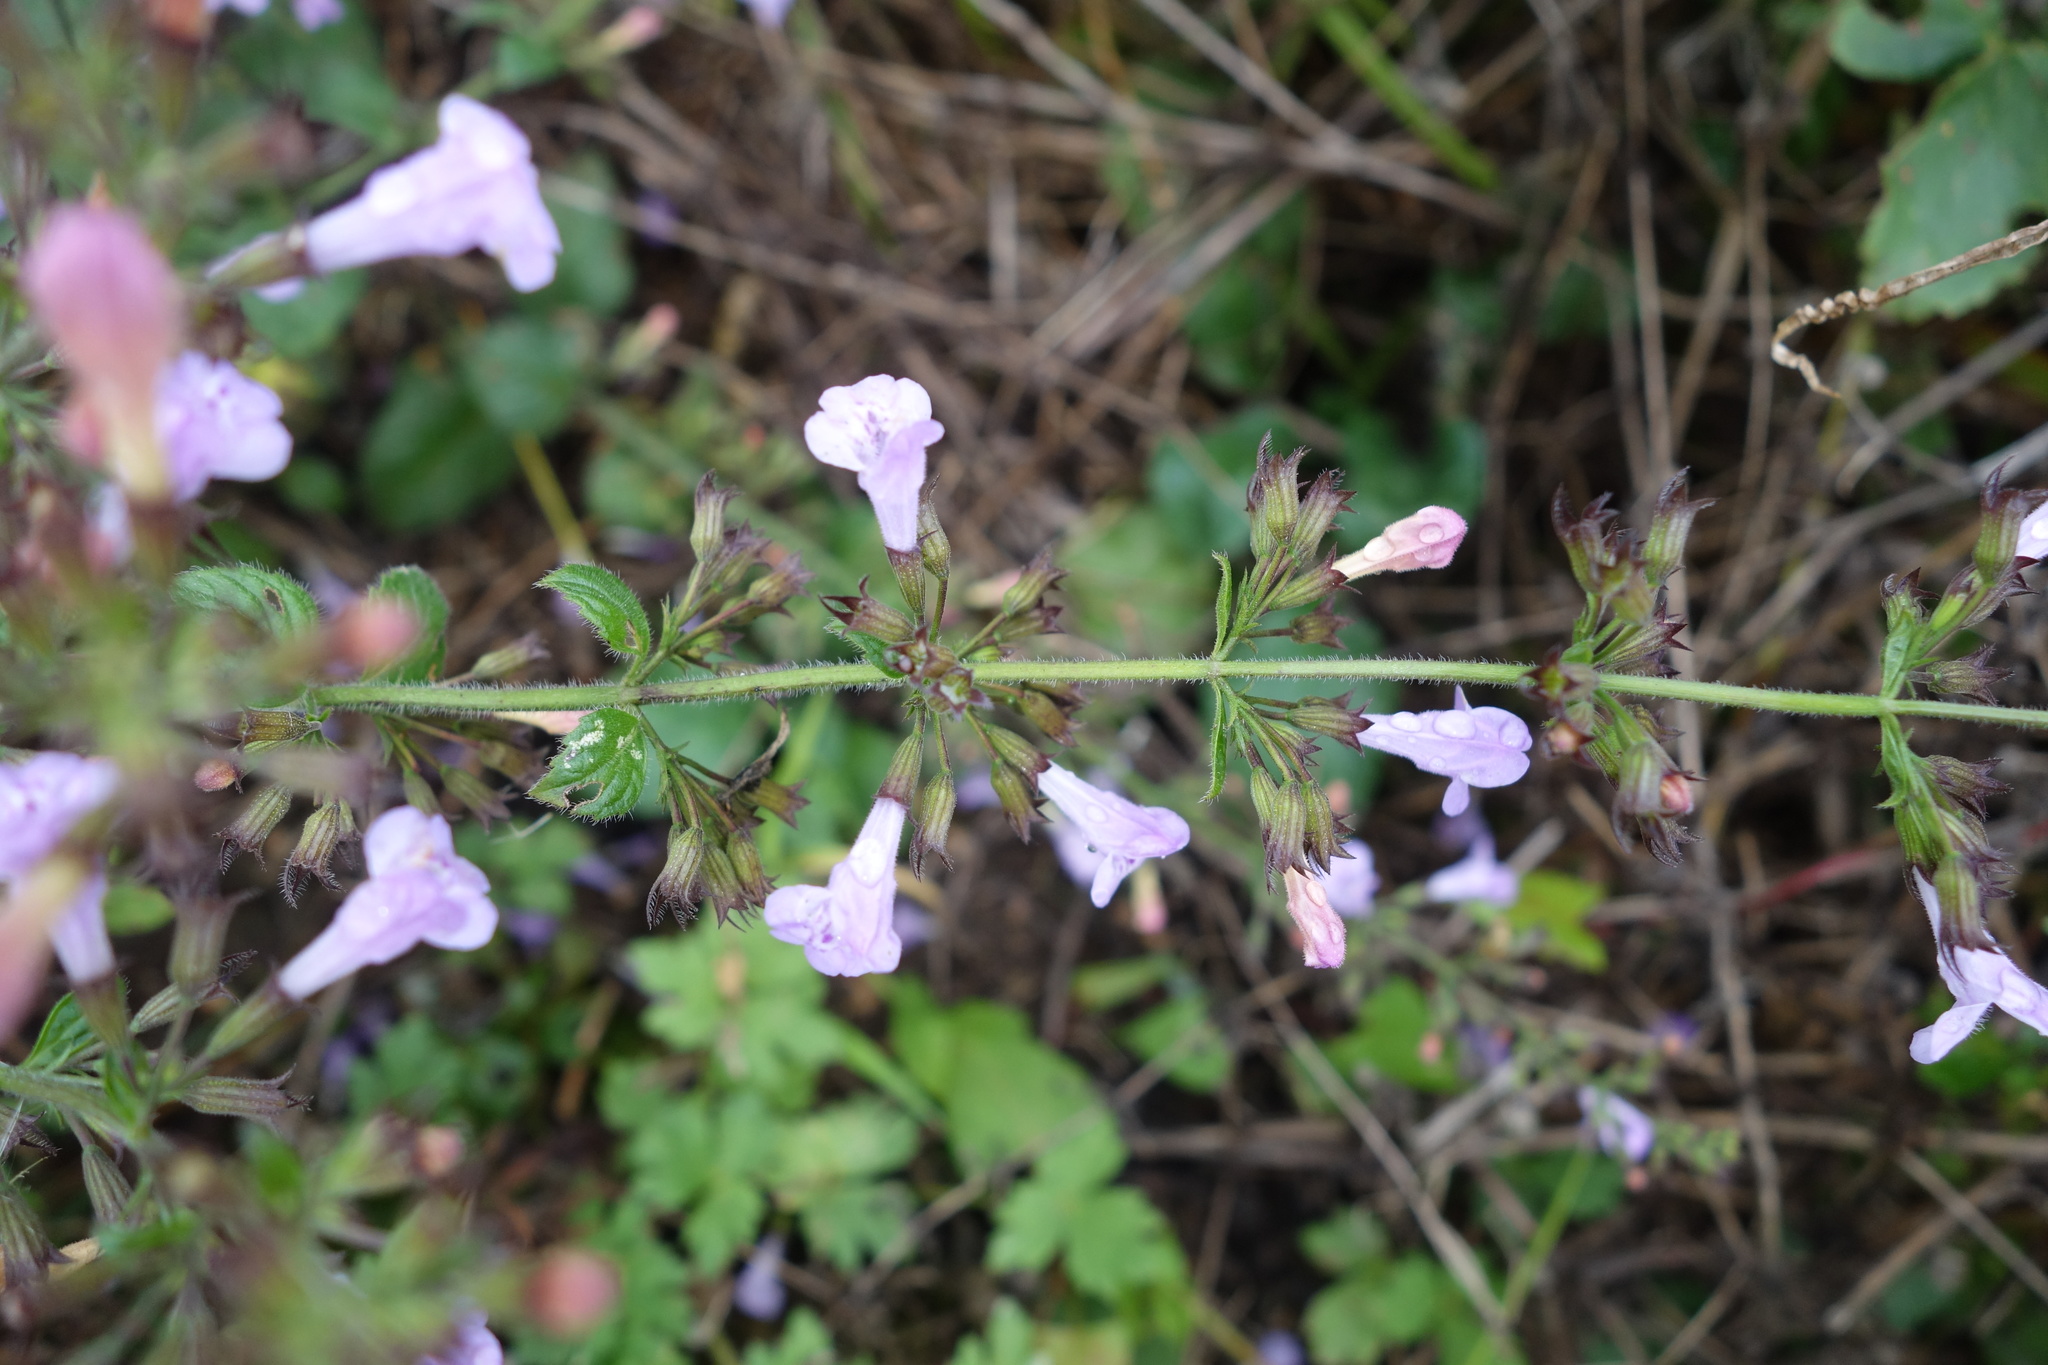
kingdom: Plantae
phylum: Tracheophyta
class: Magnoliopsida
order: Lamiales
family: Lamiaceae
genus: Clinopodium
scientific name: Clinopodium menthifolium
